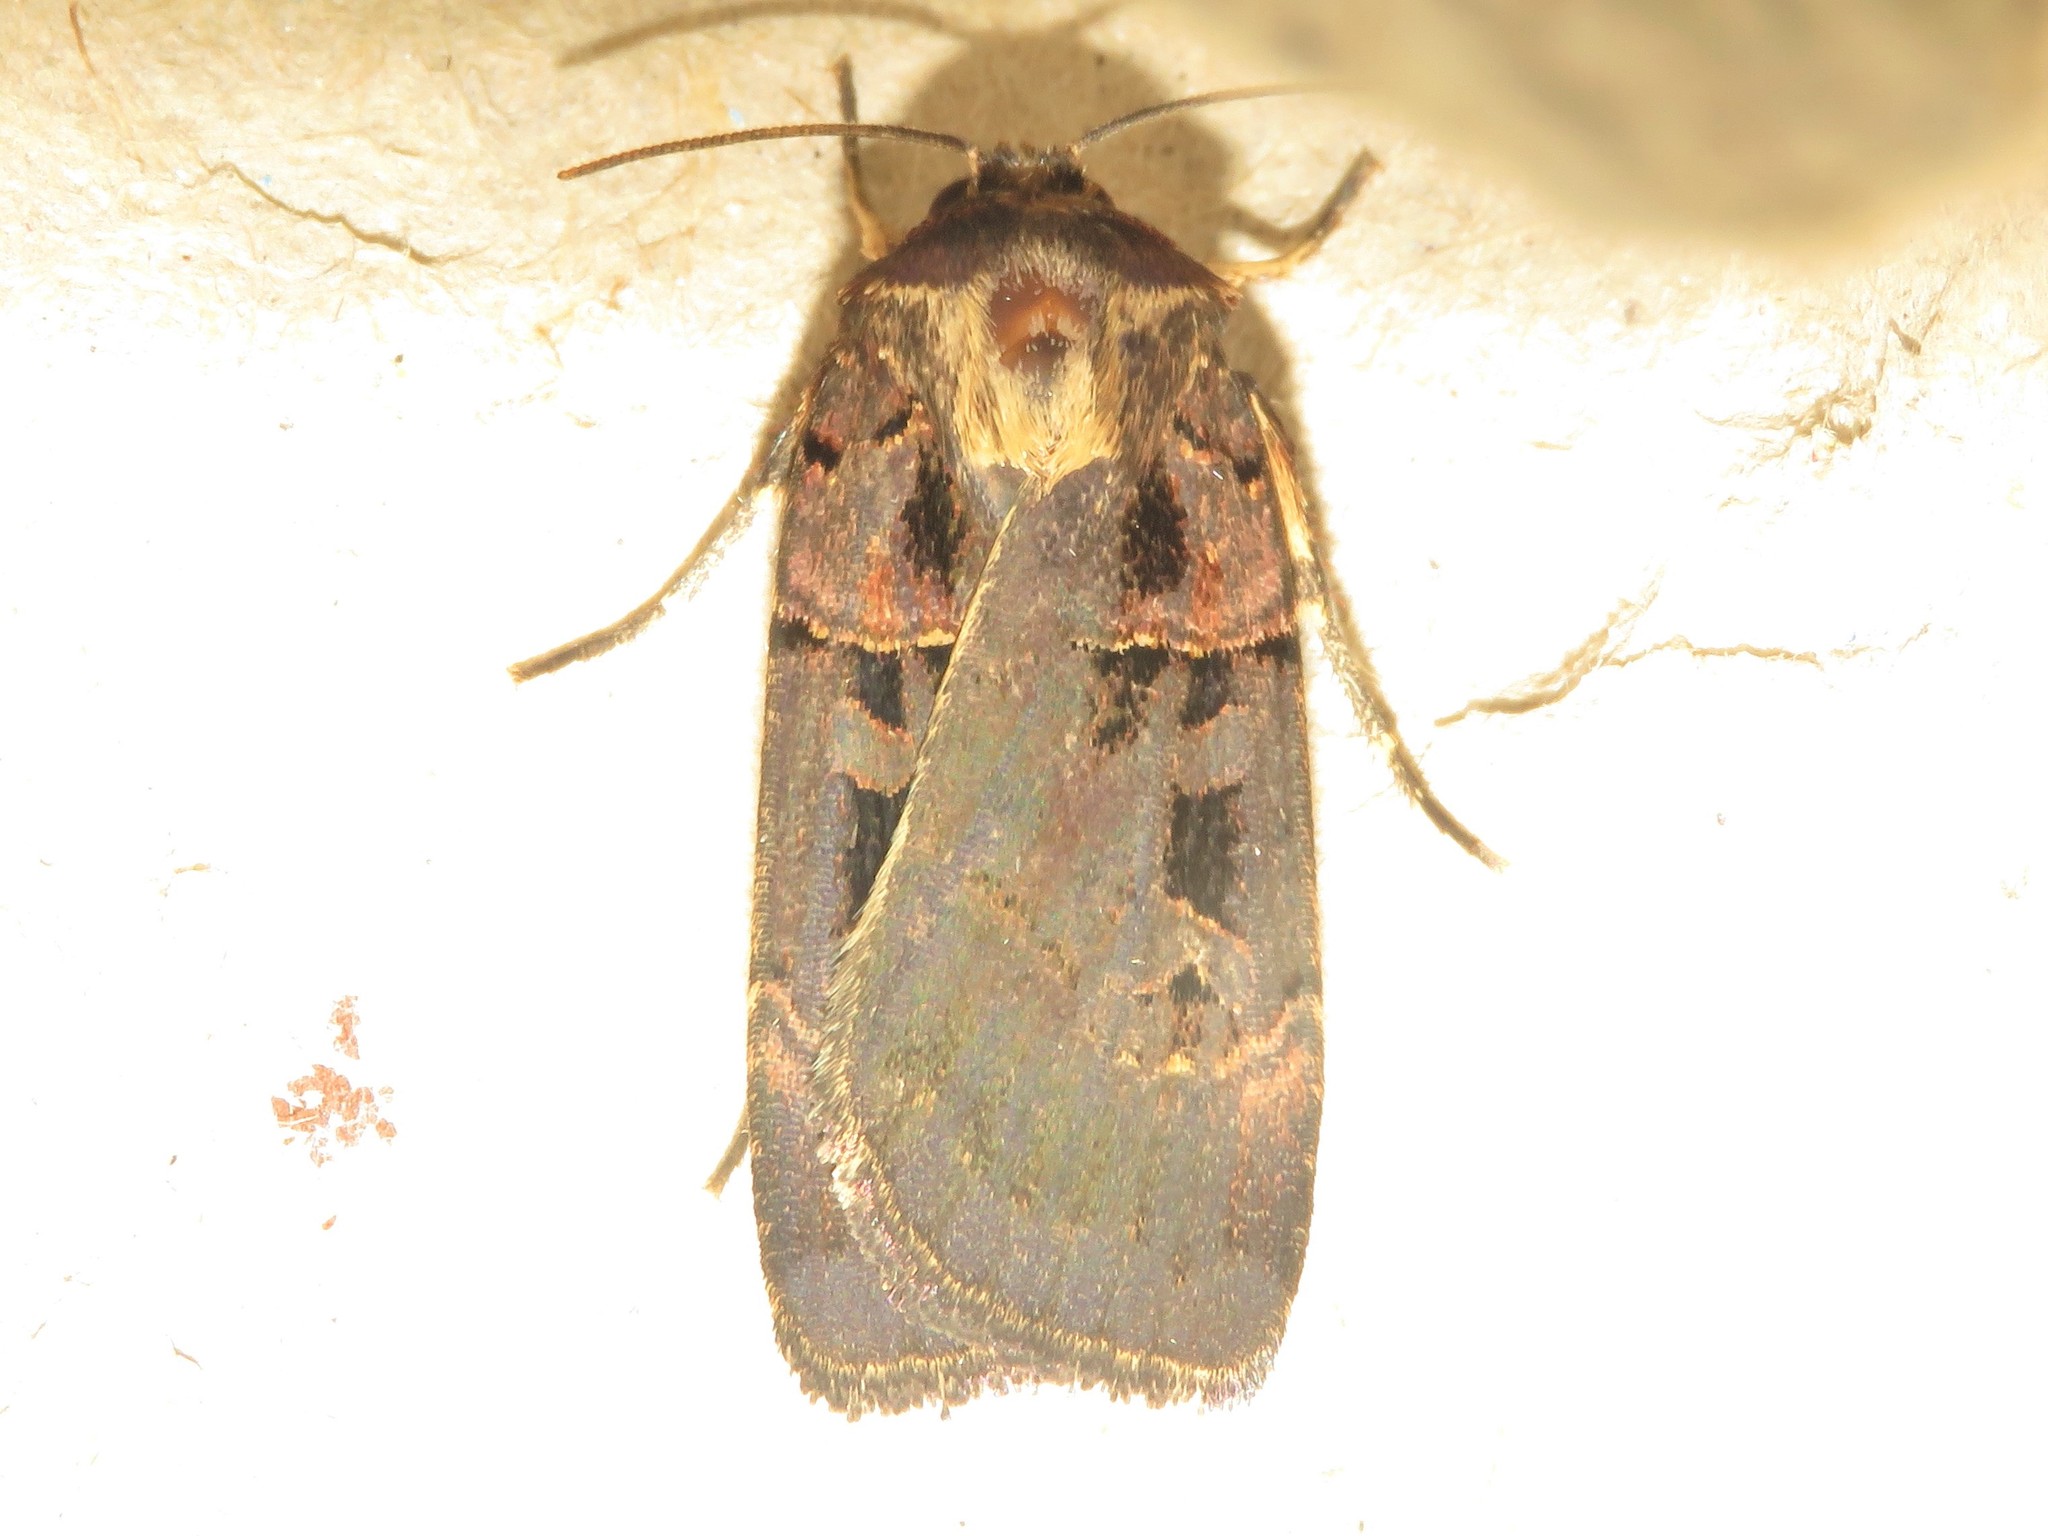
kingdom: Animalia
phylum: Arthropoda
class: Insecta
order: Lepidoptera
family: Noctuidae
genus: Pseudohermonassa
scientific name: Pseudohermonassa bicarnea
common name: Pink spotted dart
